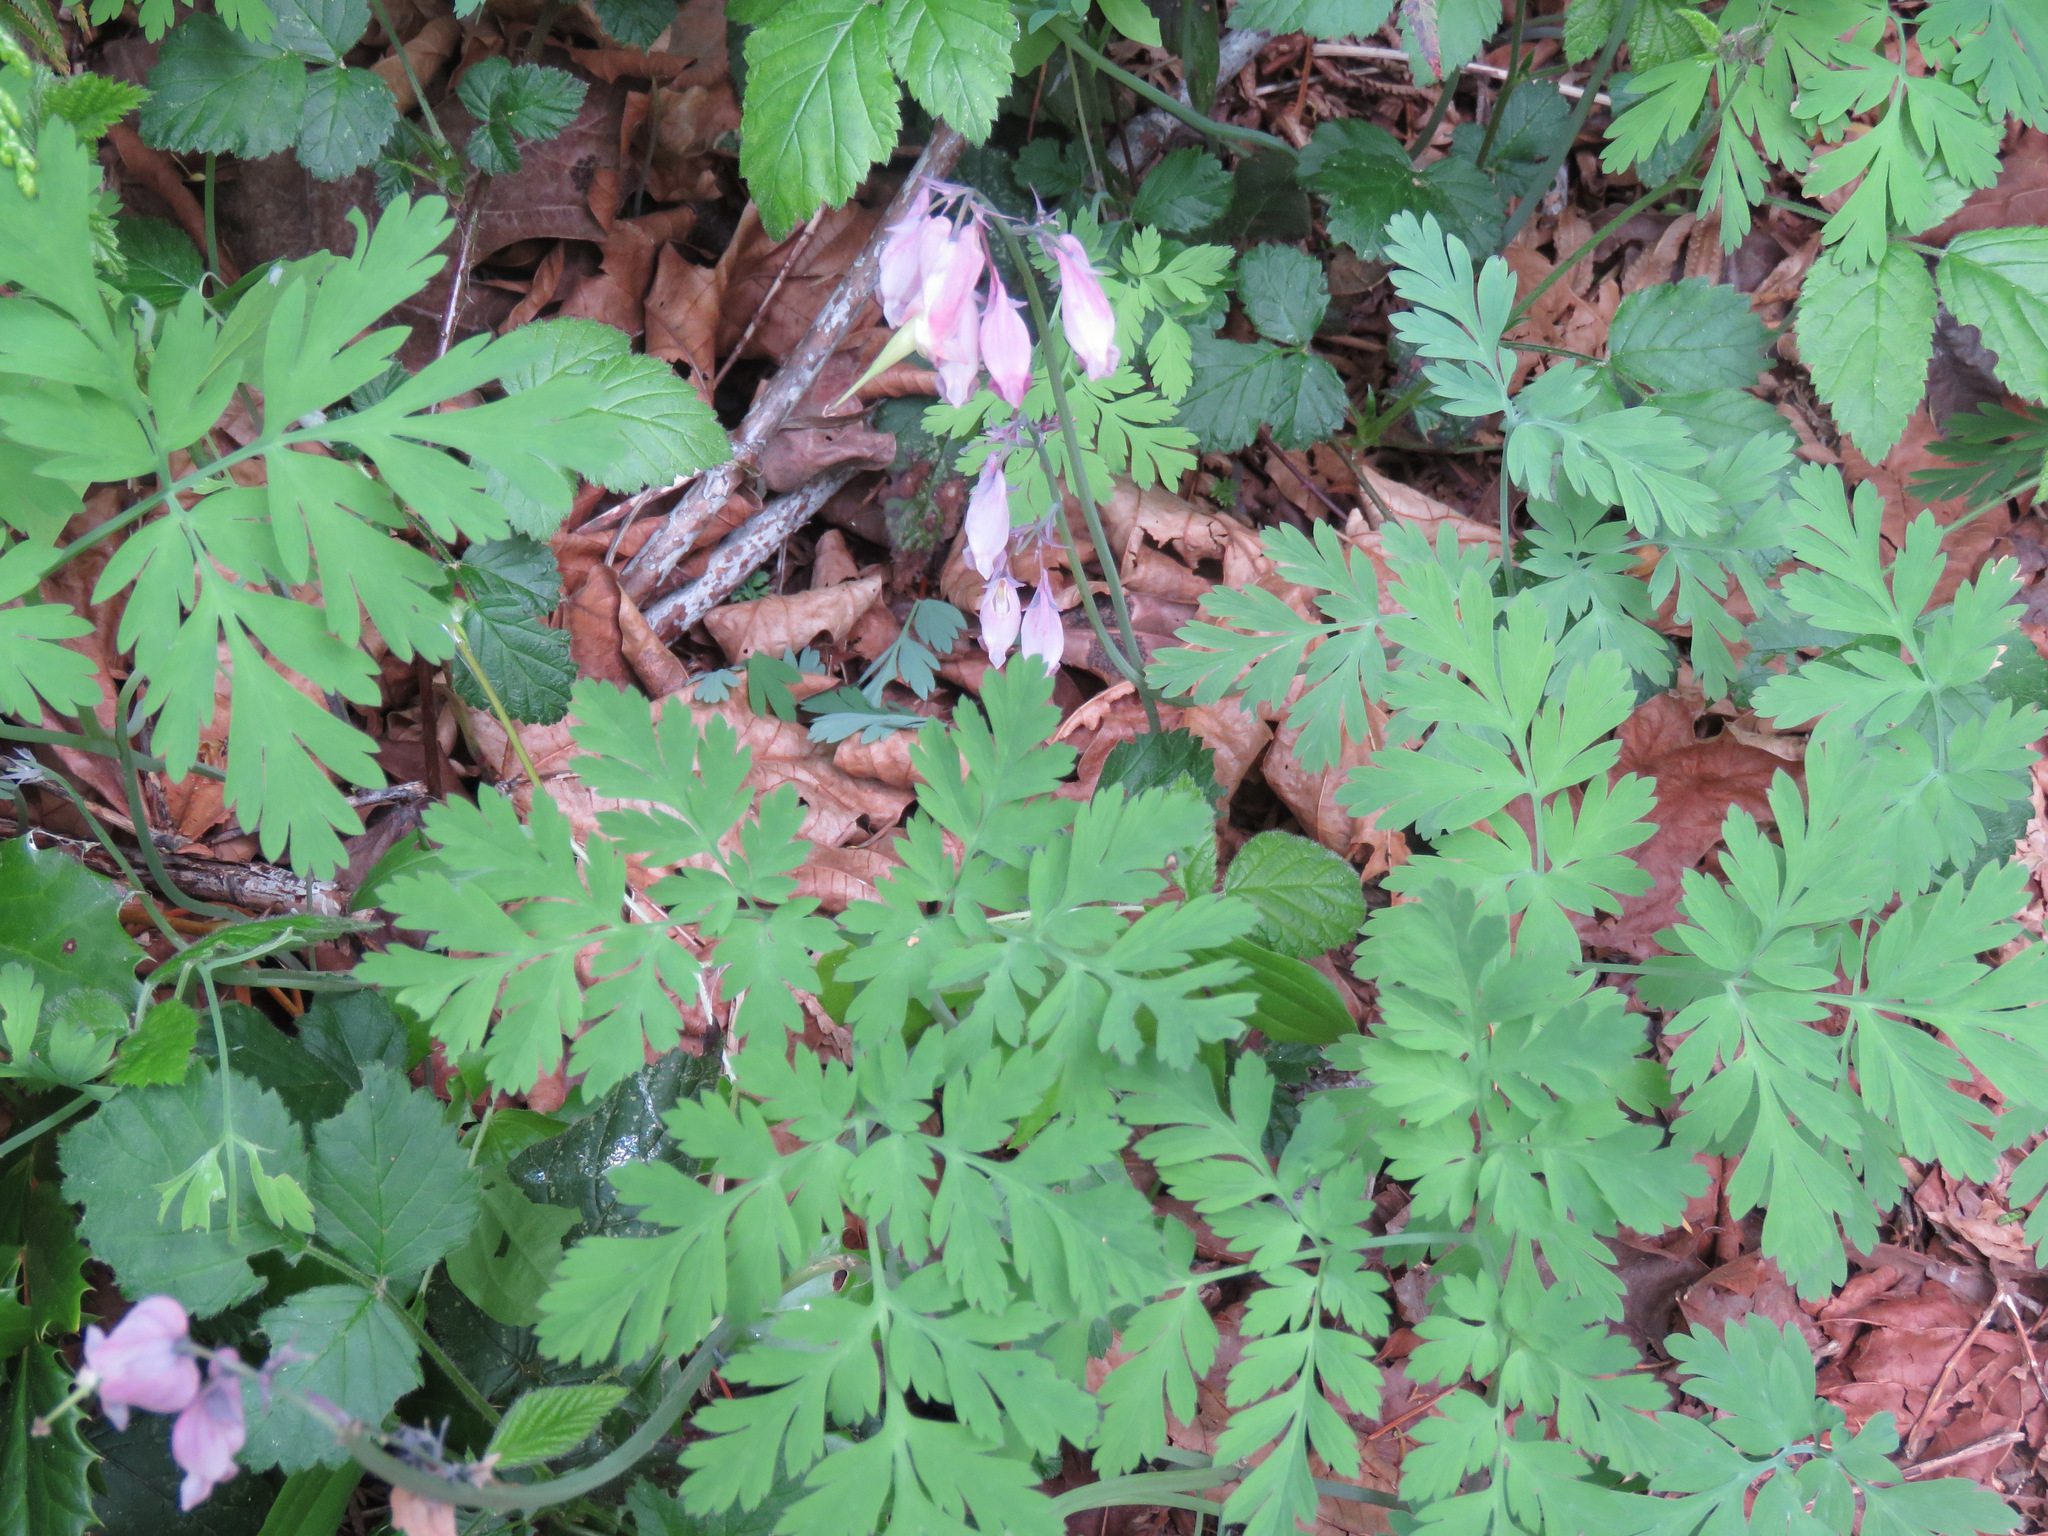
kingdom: Plantae
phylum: Tracheophyta
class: Magnoliopsida
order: Ranunculales
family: Papaveraceae
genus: Dicentra
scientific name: Dicentra formosa
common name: Bleeding-heart
